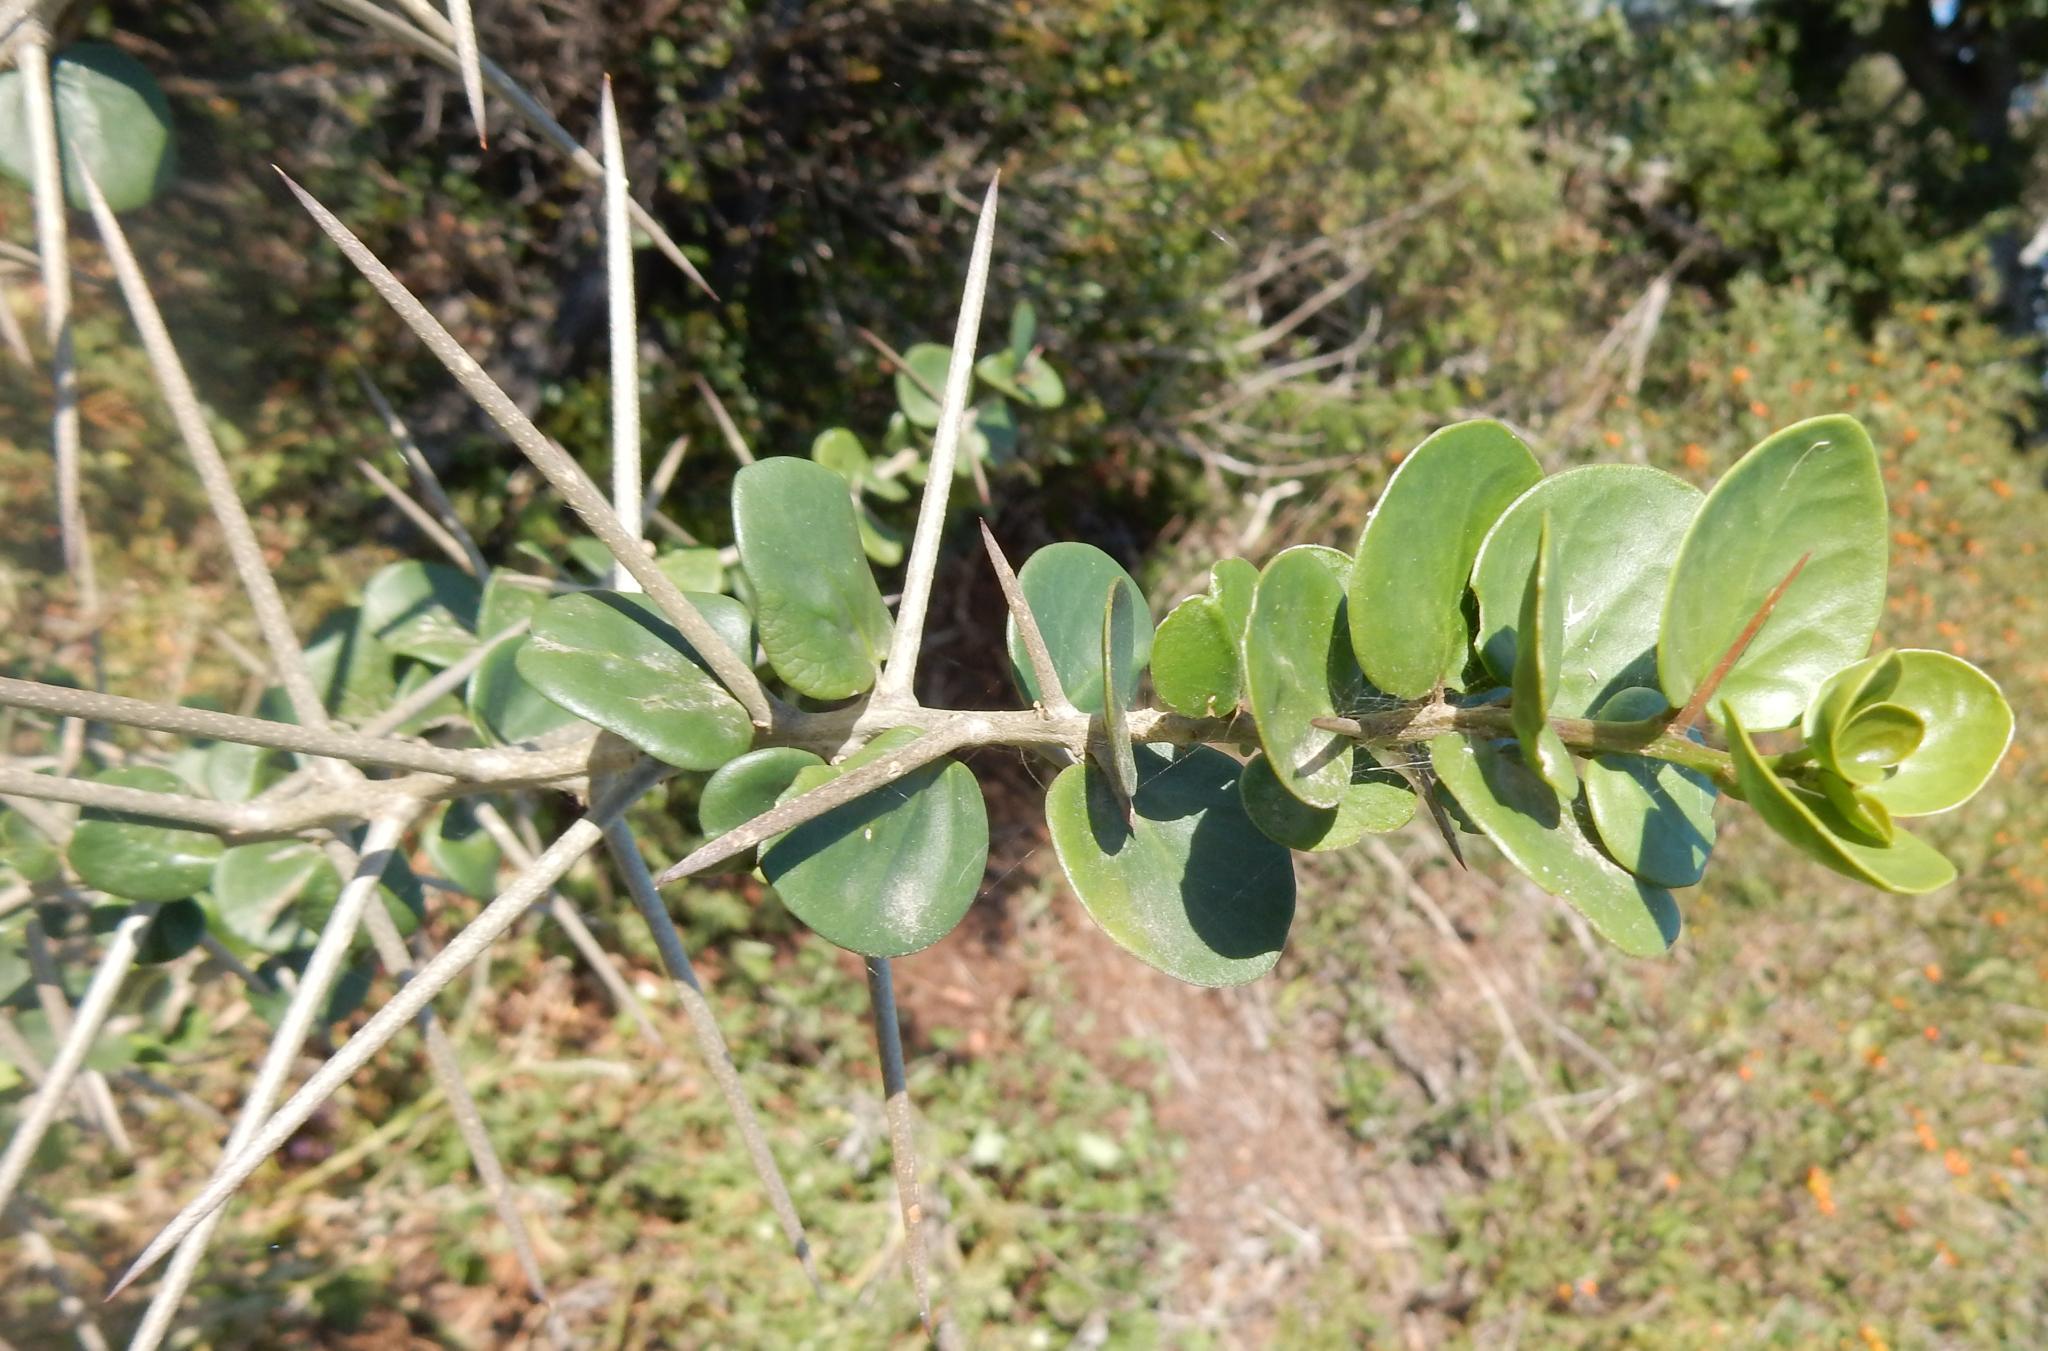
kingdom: Plantae
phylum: Tracheophyta
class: Magnoliopsida
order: Malpighiales
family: Salicaceae
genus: Dovyalis
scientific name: Dovyalis rotundifolia
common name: Dune sourberry
